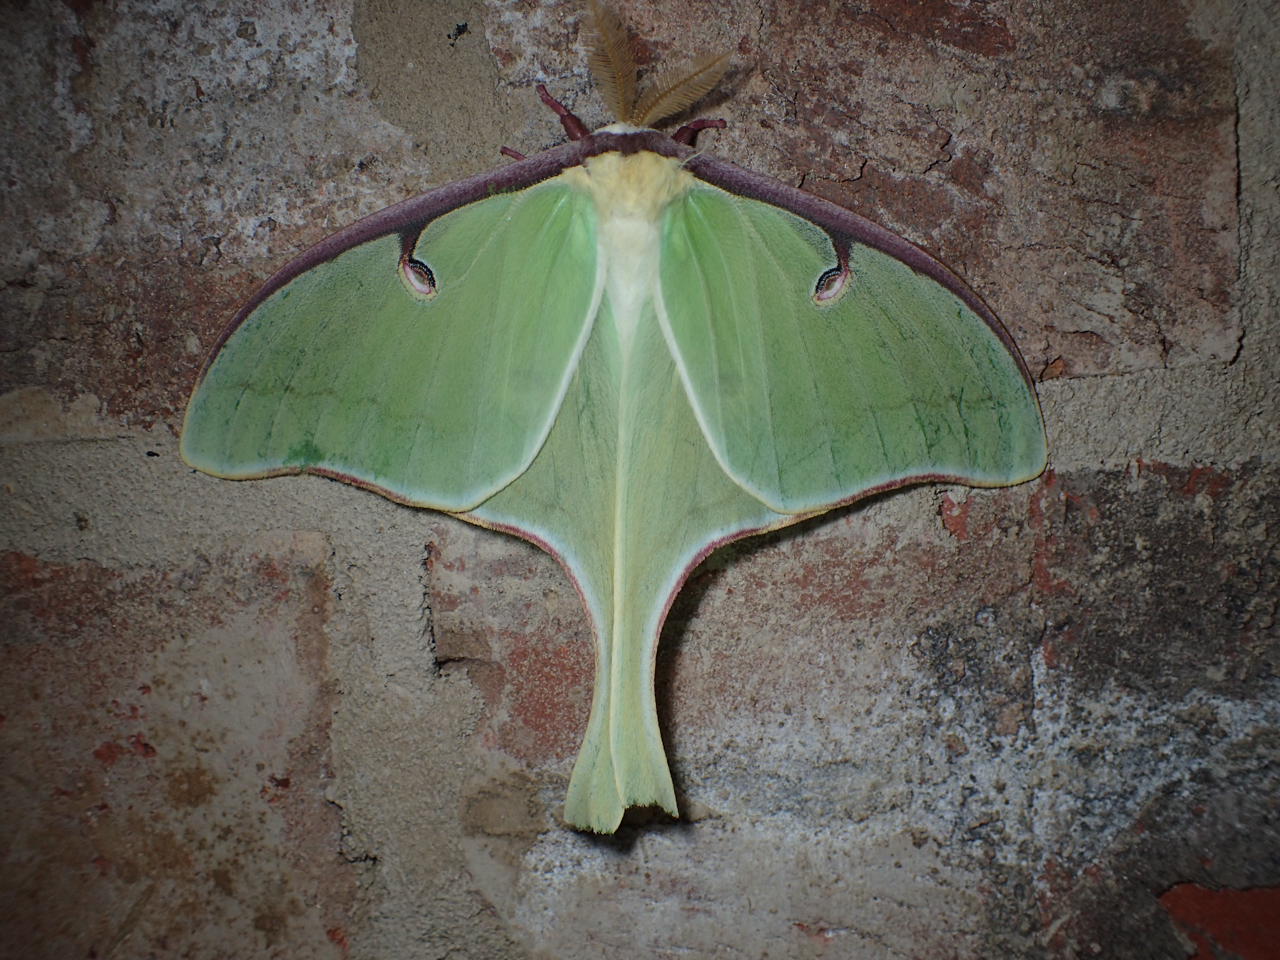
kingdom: Animalia
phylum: Arthropoda
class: Insecta
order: Lepidoptera
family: Saturniidae
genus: Actias
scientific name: Actias luna
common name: Luna moth
